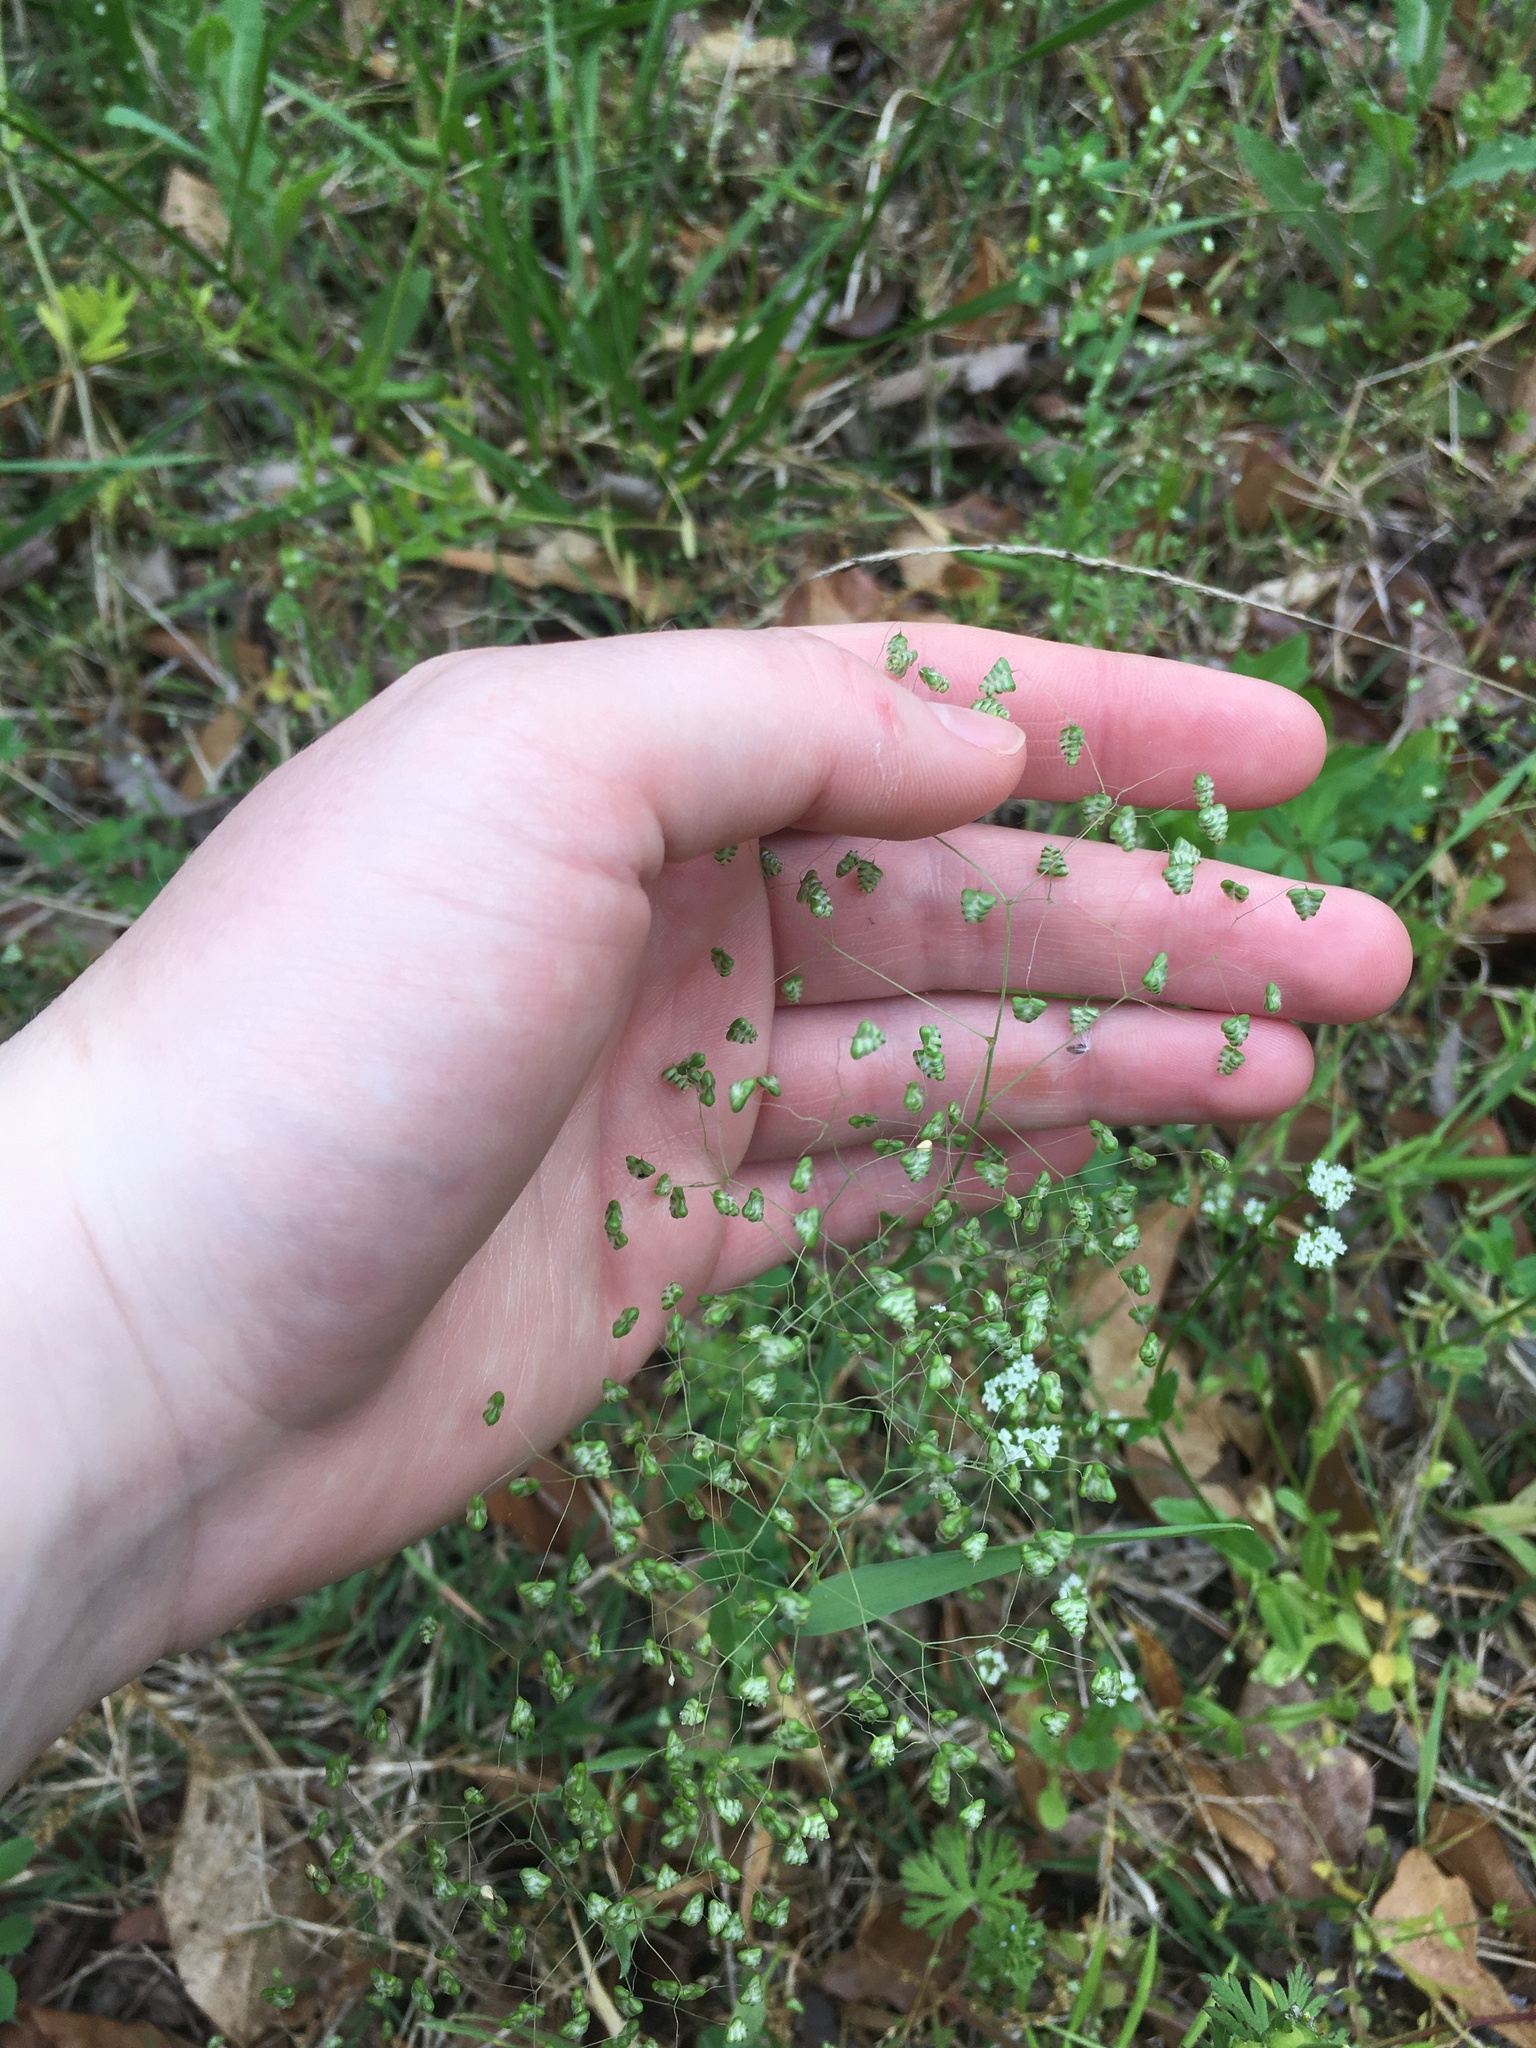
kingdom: Plantae
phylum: Tracheophyta
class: Liliopsida
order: Poales
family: Poaceae
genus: Briza
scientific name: Briza minor
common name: Lesser quaking-grass
